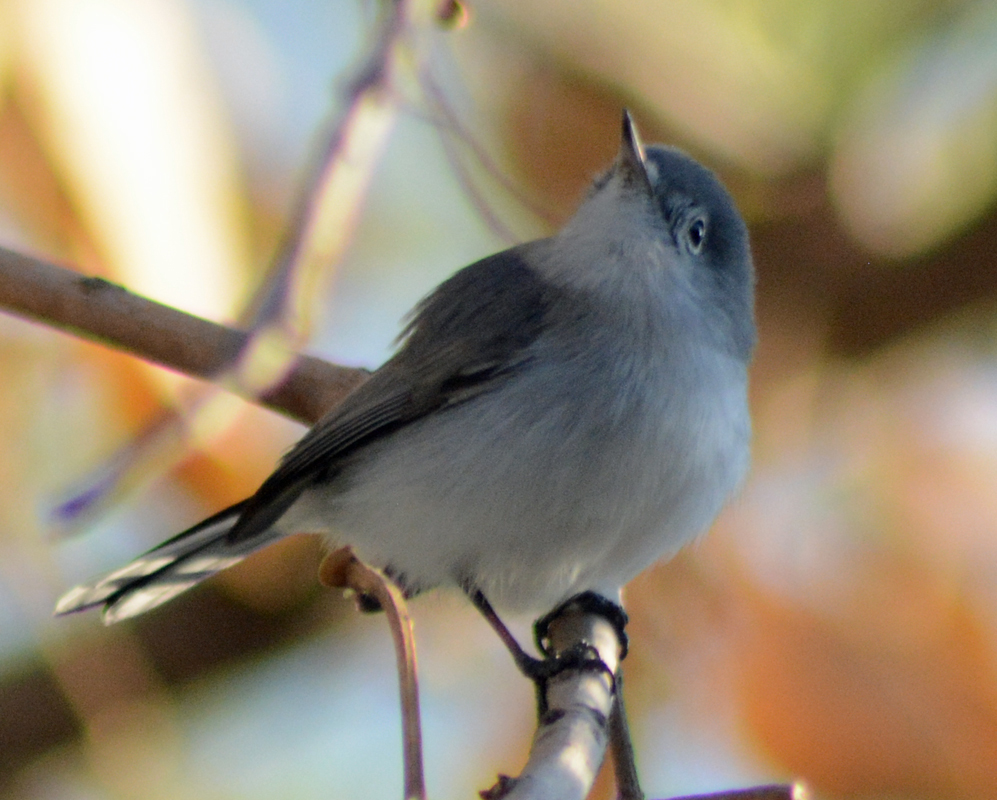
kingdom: Animalia
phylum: Chordata
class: Aves
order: Passeriformes
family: Polioptilidae
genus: Polioptila
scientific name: Polioptila caerulea
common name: Blue-gray gnatcatcher
